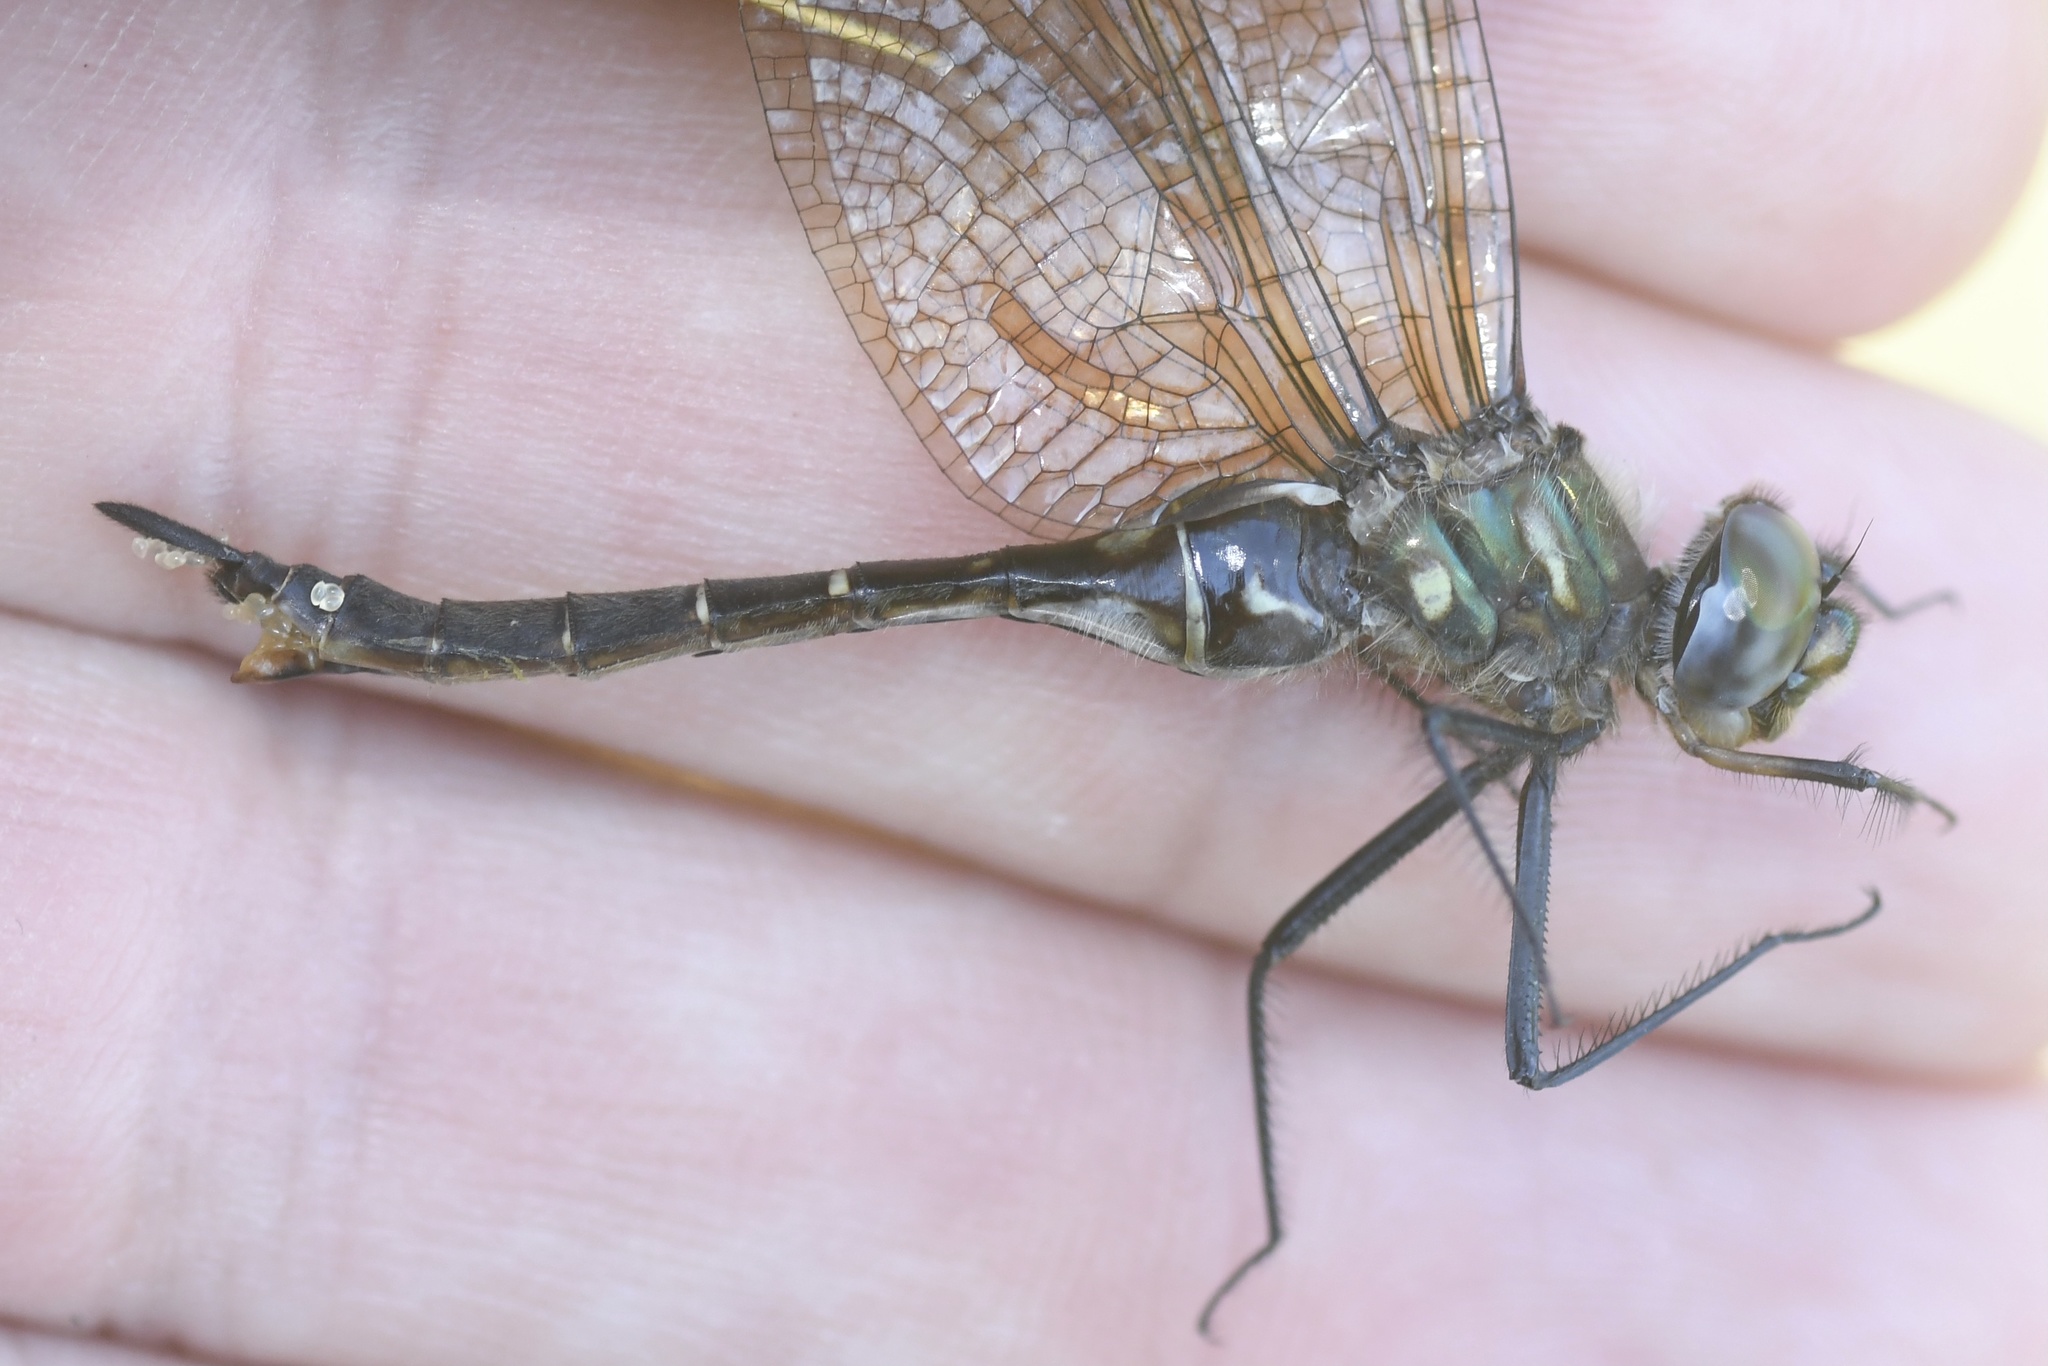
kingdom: Animalia
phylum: Arthropoda
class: Insecta
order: Odonata
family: Corduliidae
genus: Somatochlora
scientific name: Somatochlora walshii
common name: Brush-tipped emerald
